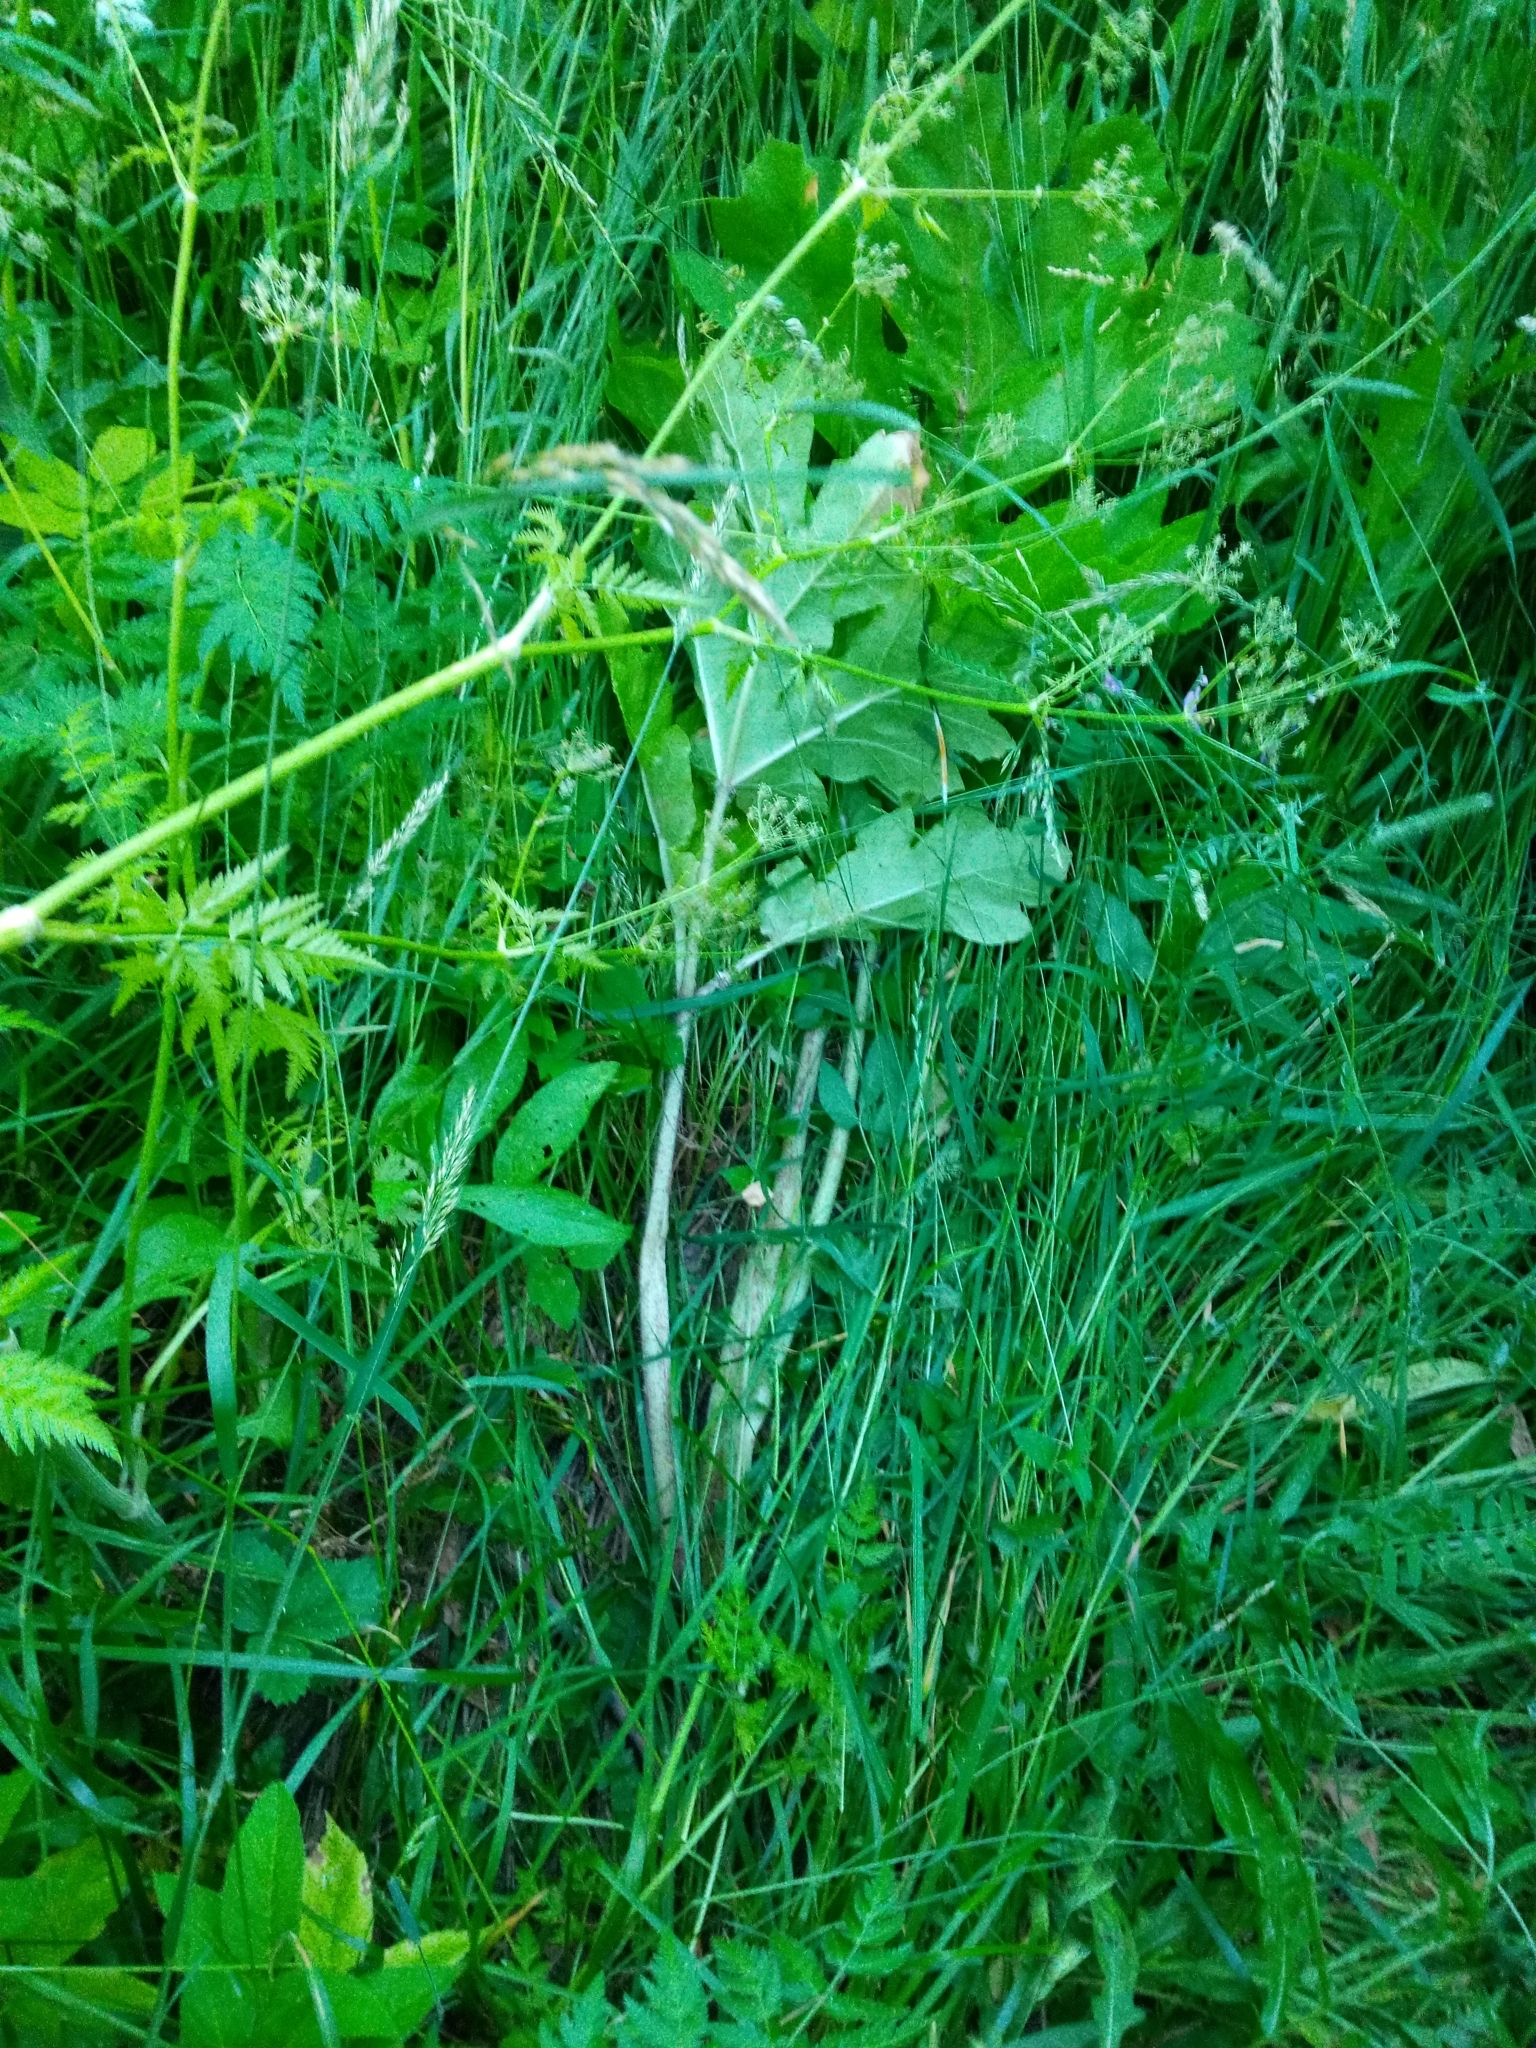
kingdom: Plantae
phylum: Tracheophyta
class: Magnoliopsida
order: Apiales
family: Apiaceae
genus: Anthriscus
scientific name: Anthriscus sylvestris
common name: Cow parsley
